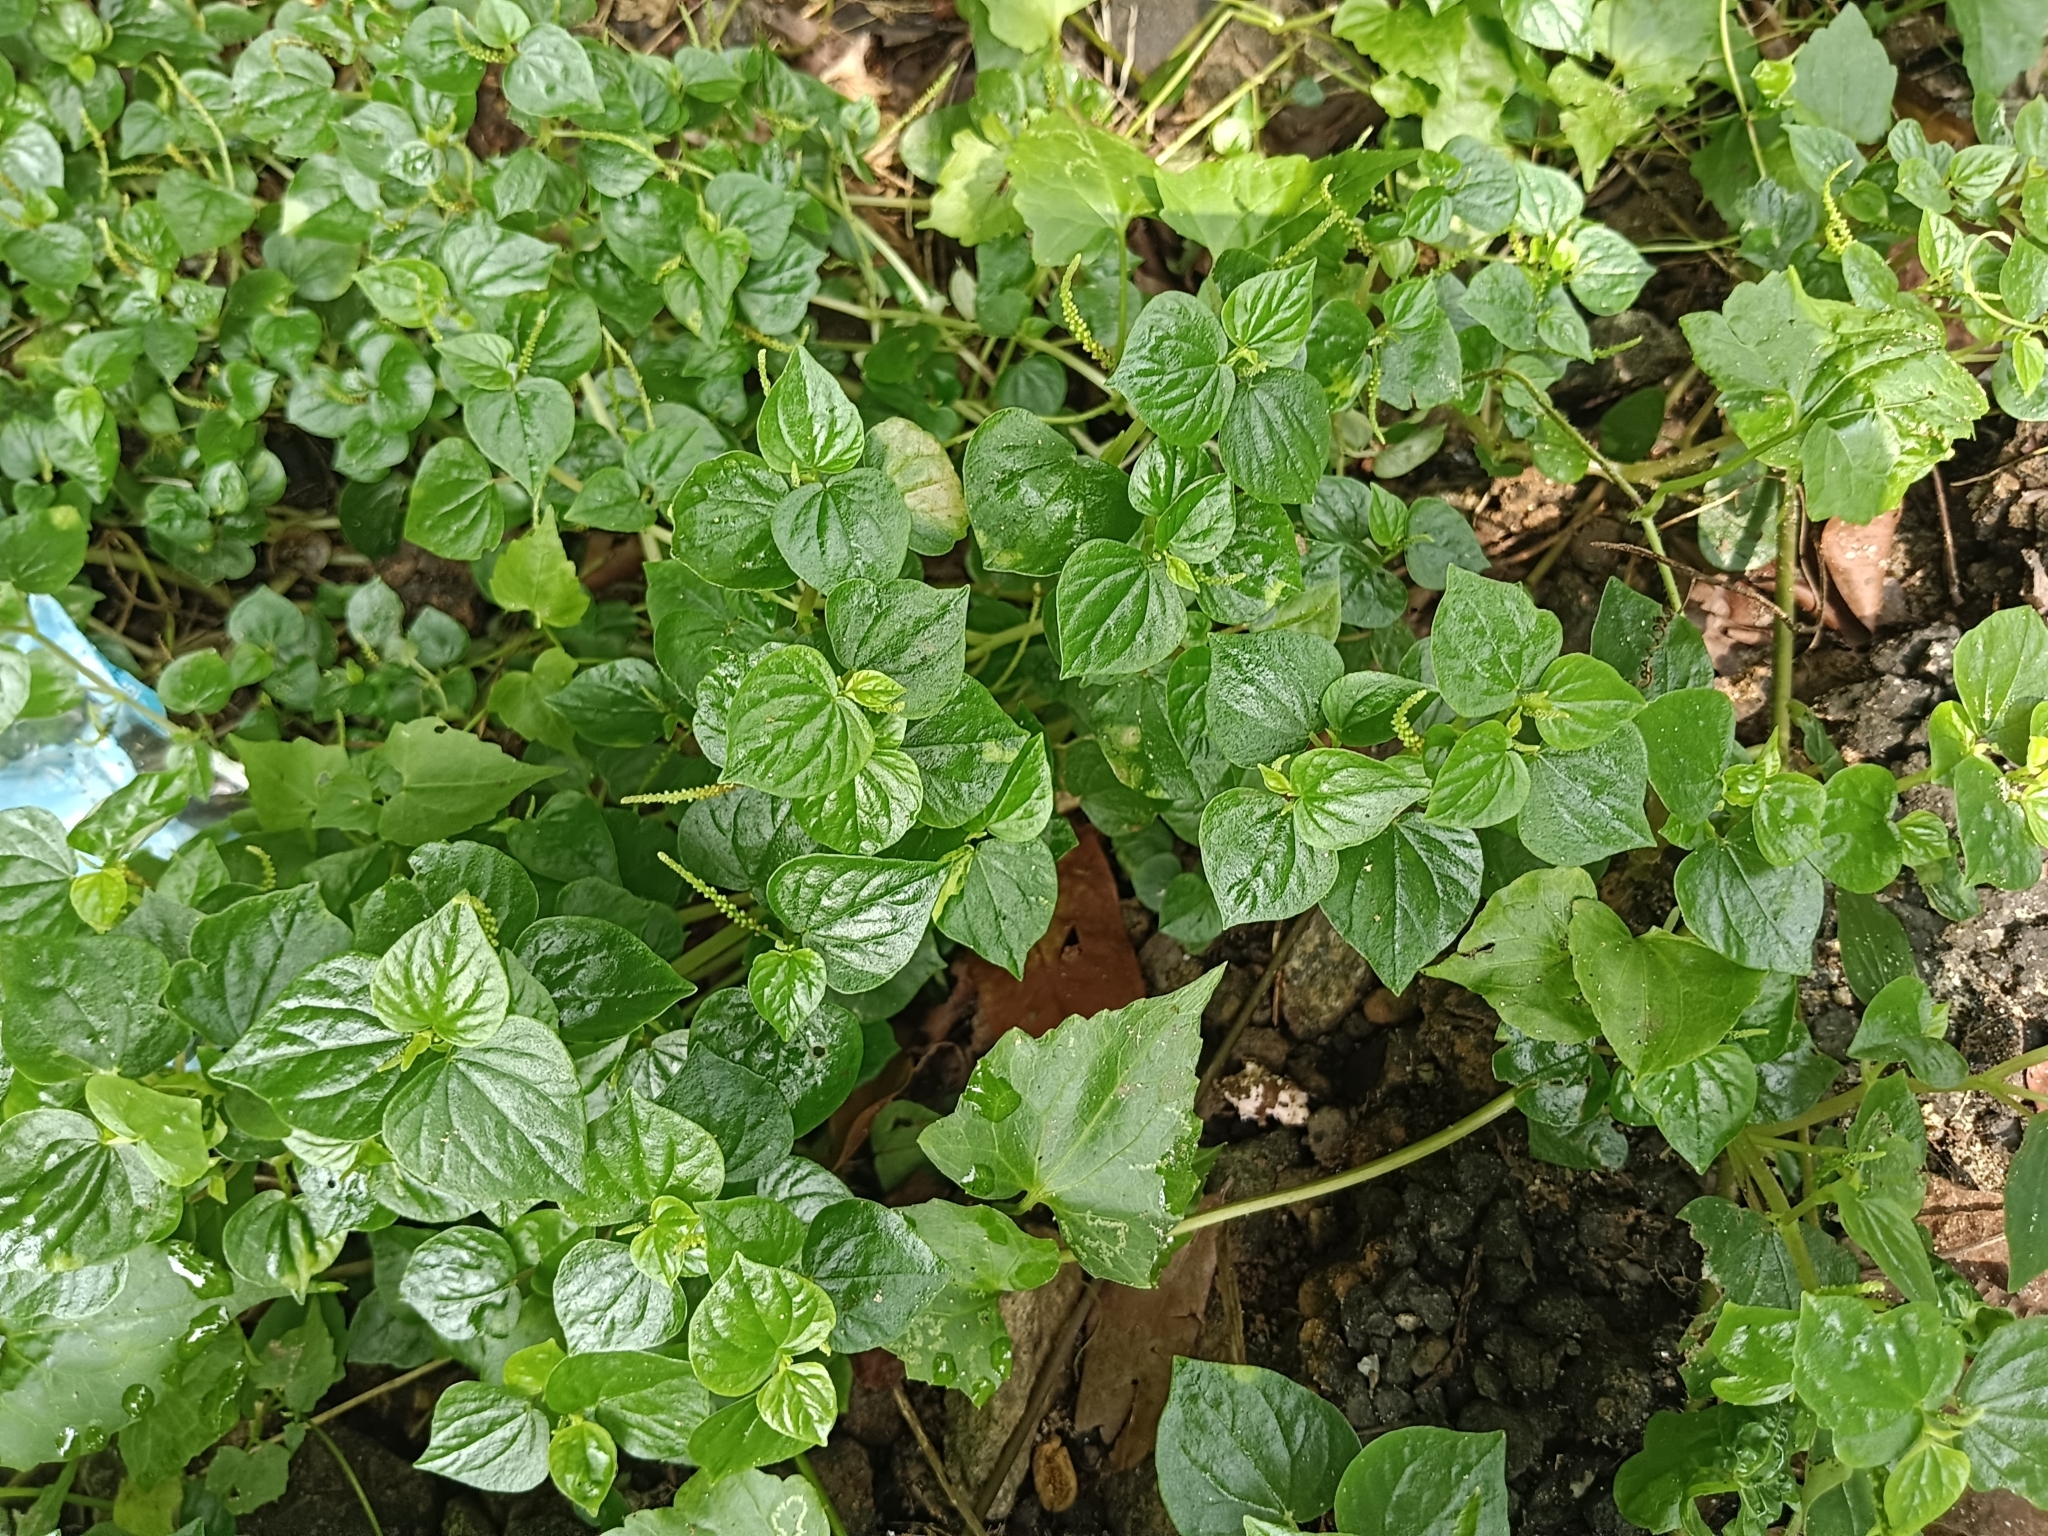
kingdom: Plantae
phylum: Tracheophyta
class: Magnoliopsida
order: Piperales
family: Piperaceae
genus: Peperomia
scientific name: Peperomia pellucida
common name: Man to man
